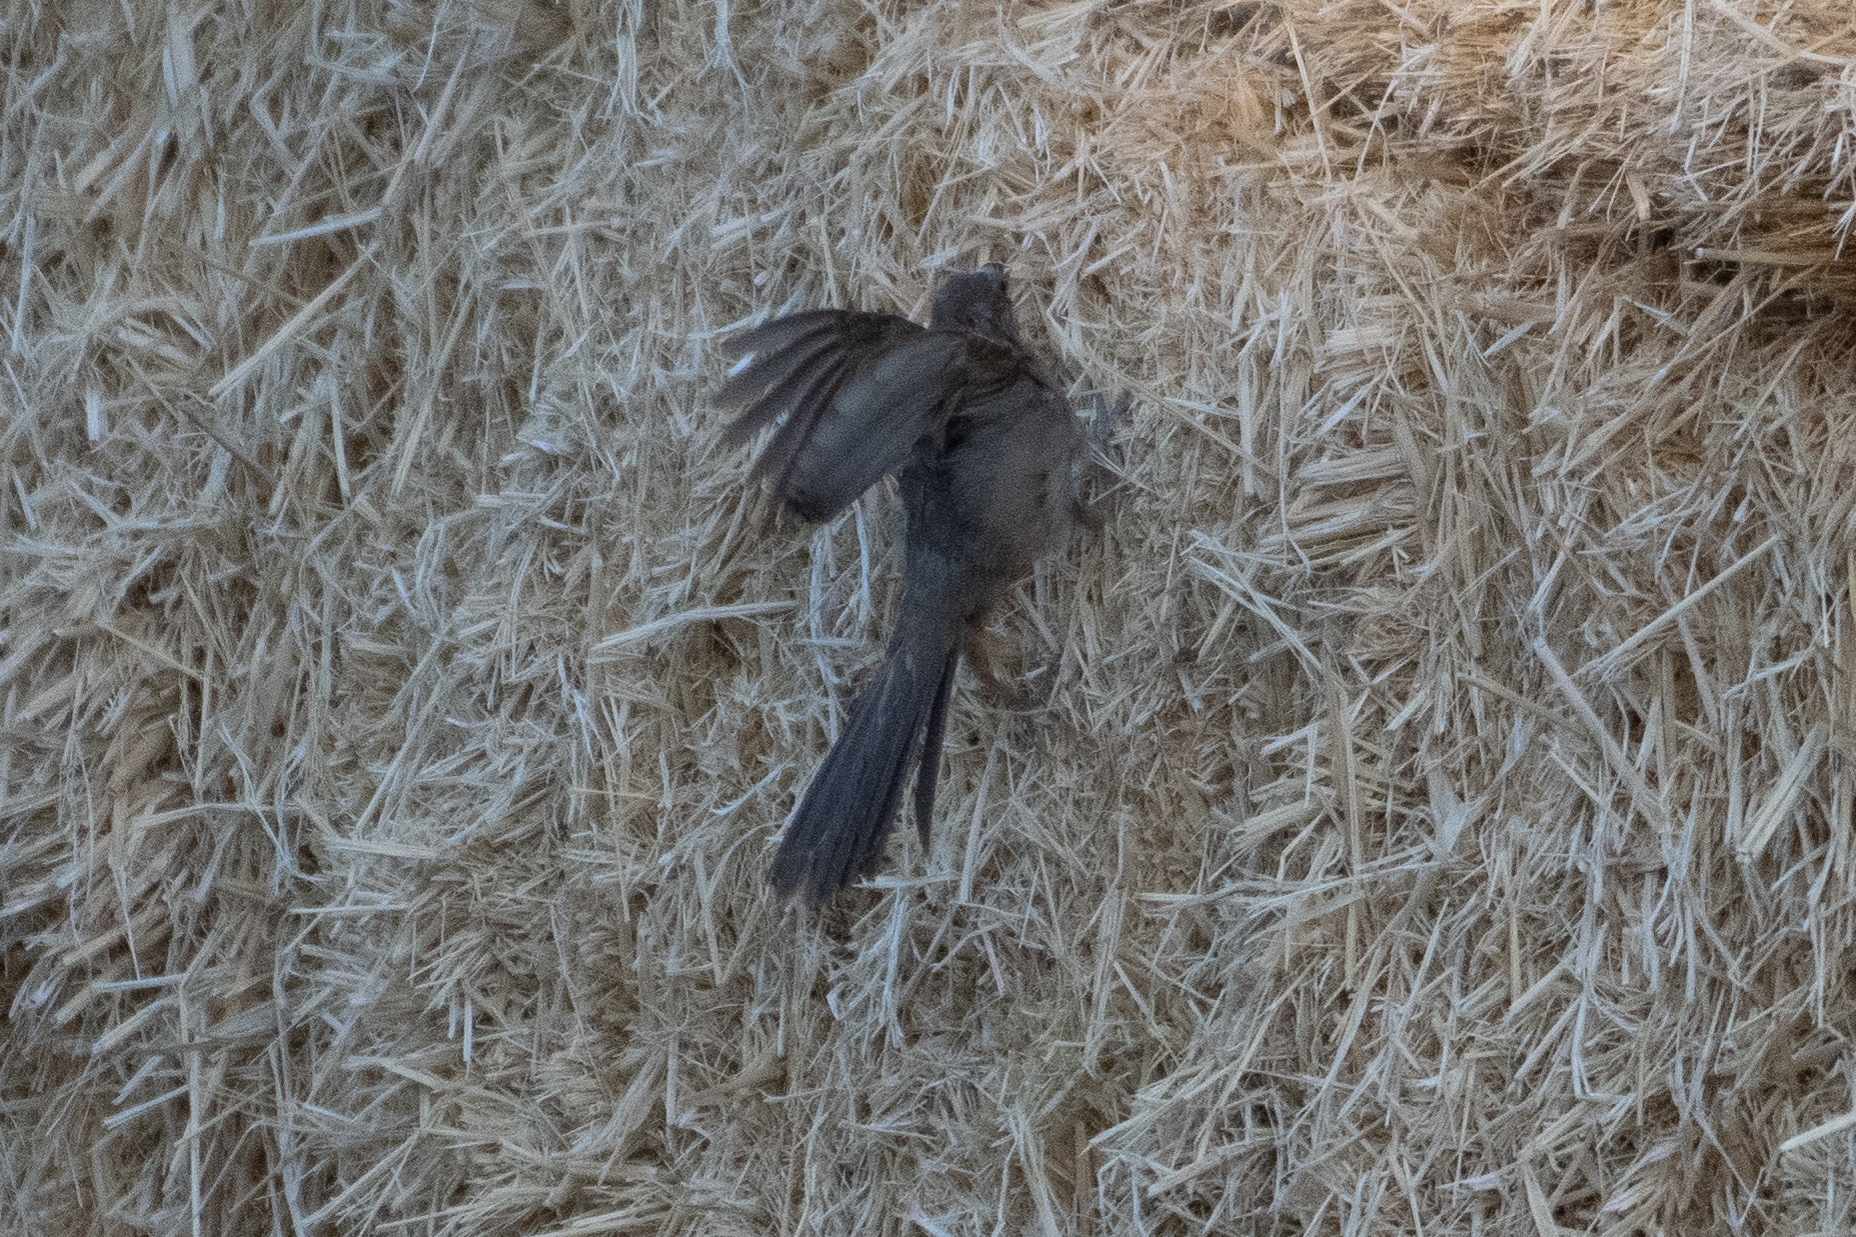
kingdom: Animalia
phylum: Chordata
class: Aves
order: Passeriformes
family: Passerellidae
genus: Melozone
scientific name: Melozone crissalis
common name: California towhee
